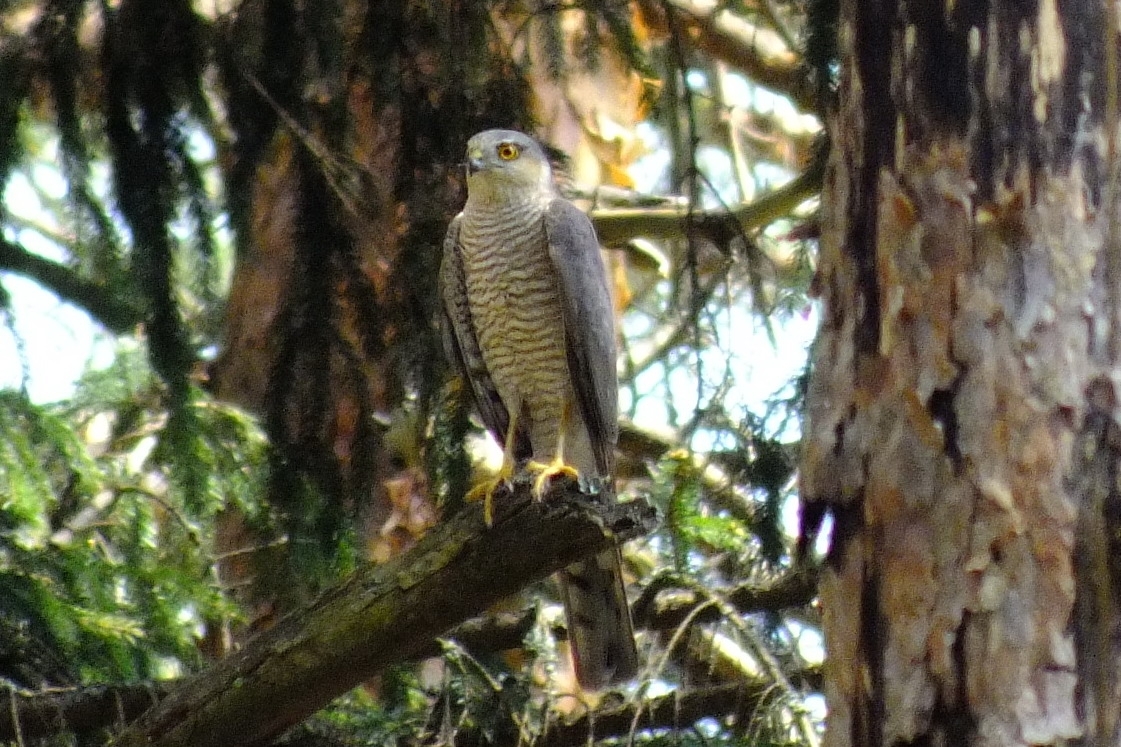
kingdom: Animalia
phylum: Chordata
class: Aves
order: Accipitriformes
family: Accipitridae
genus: Accipiter
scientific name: Accipiter nisus
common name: Eurasian sparrowhawk
